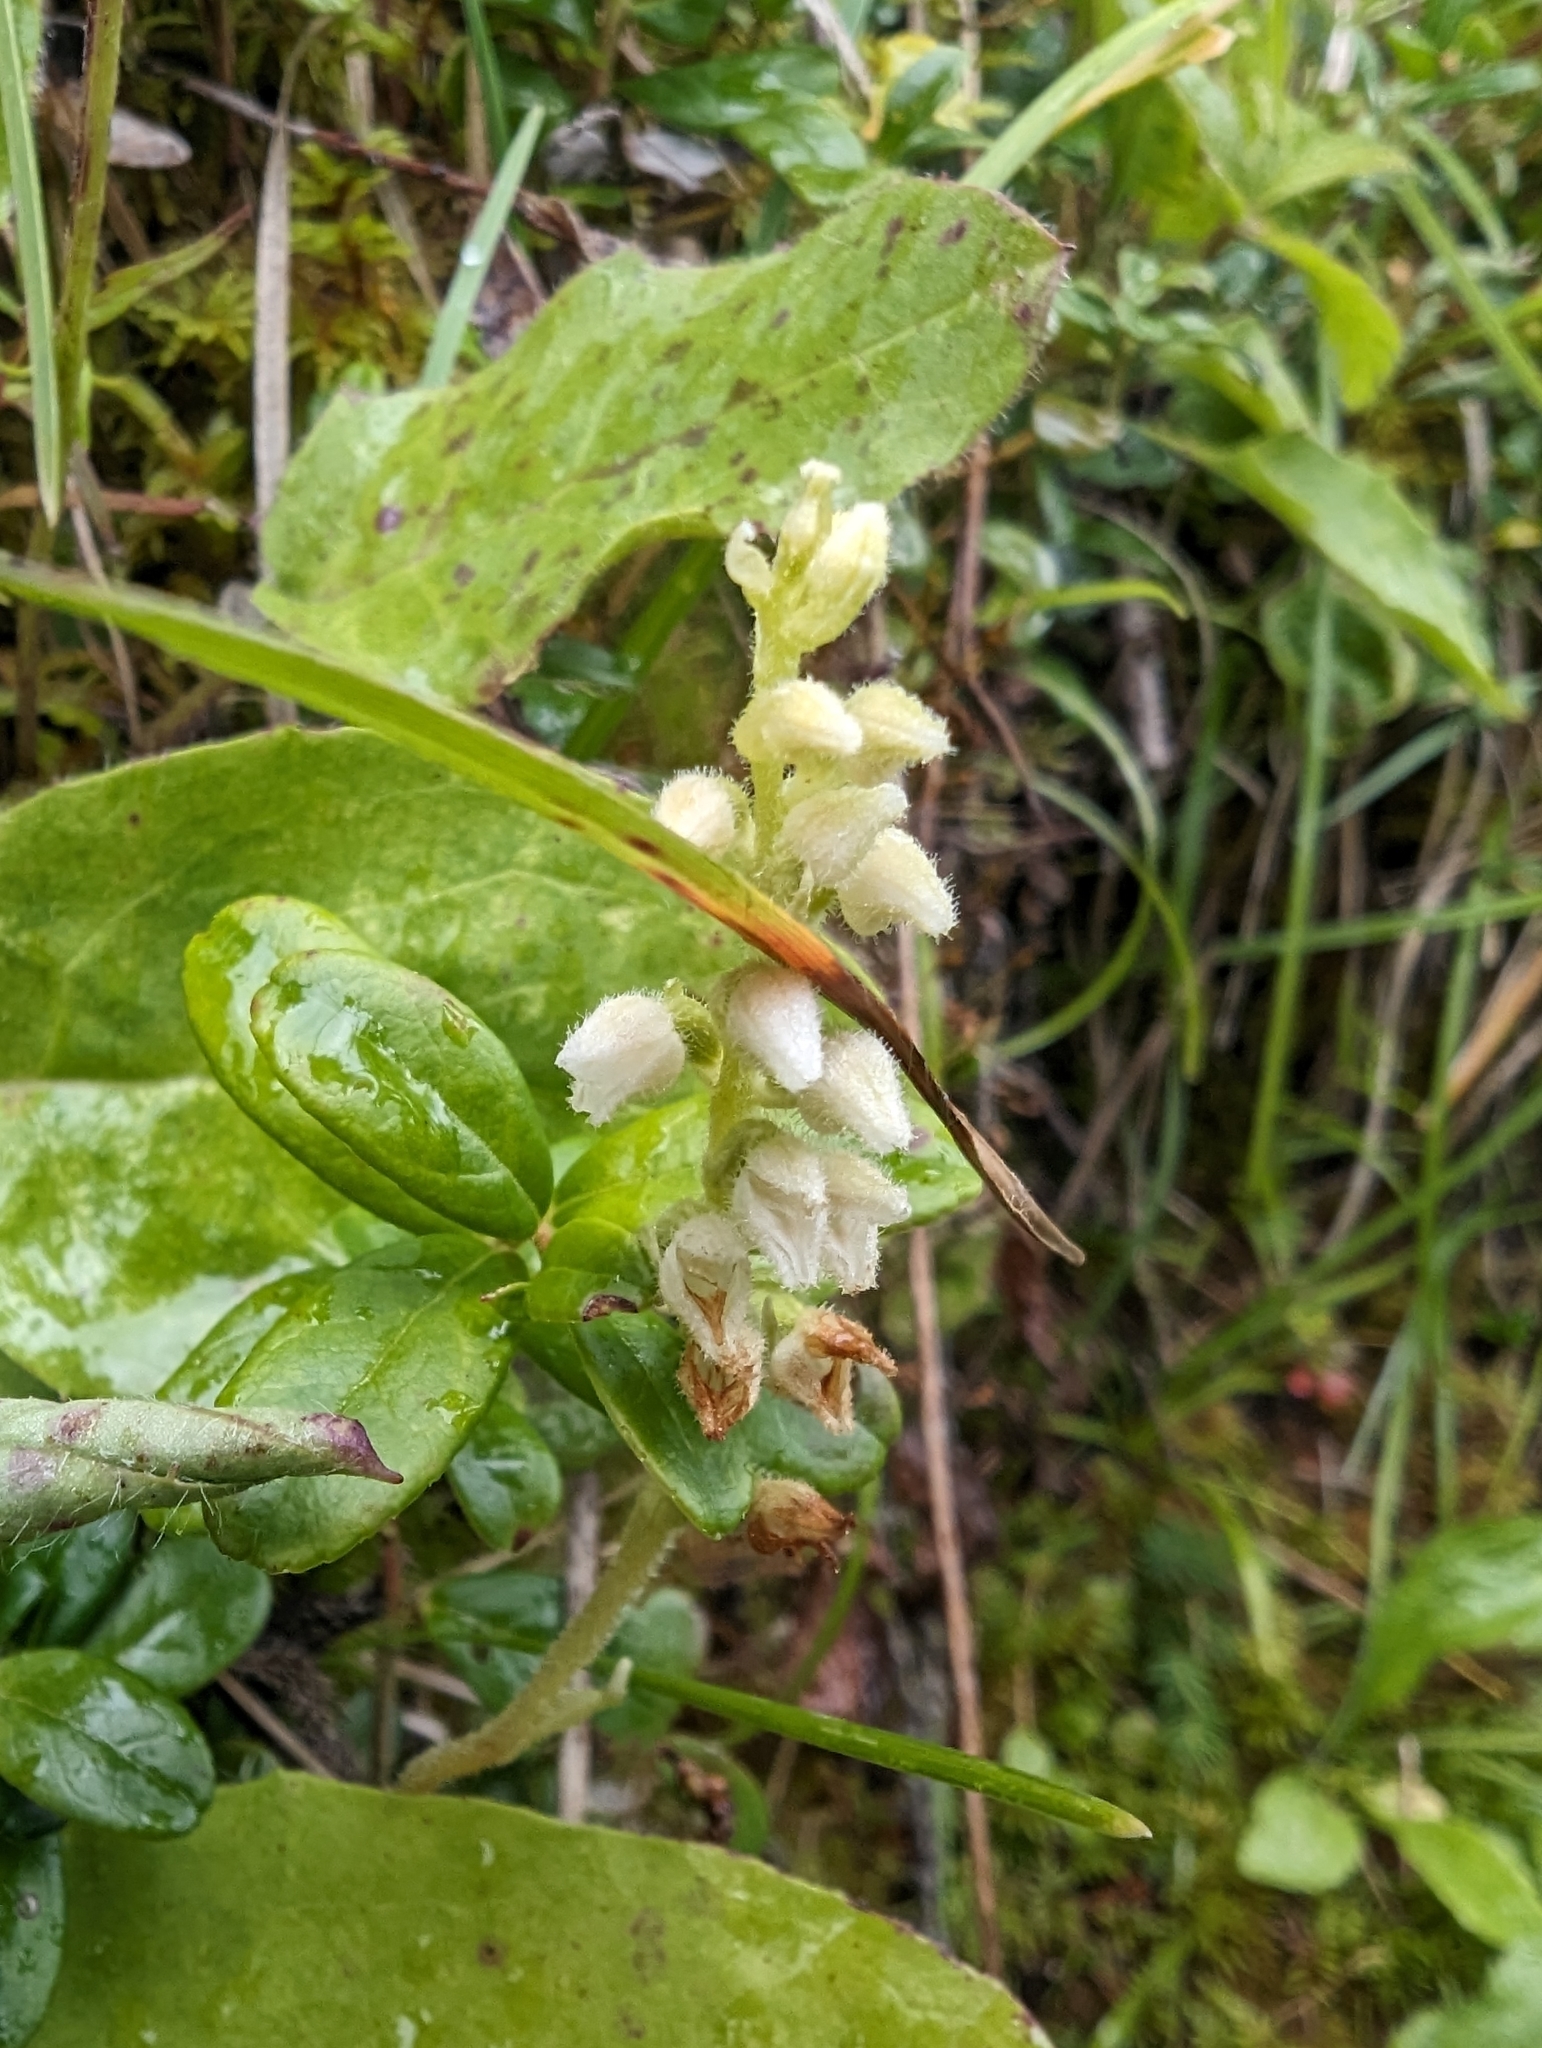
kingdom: Plantae
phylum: Tracheophyta
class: Liliopsida
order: Asparagales
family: Orchidaceae
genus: Goodyera
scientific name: Goodyera repens
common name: Creeping lady's-tresses
